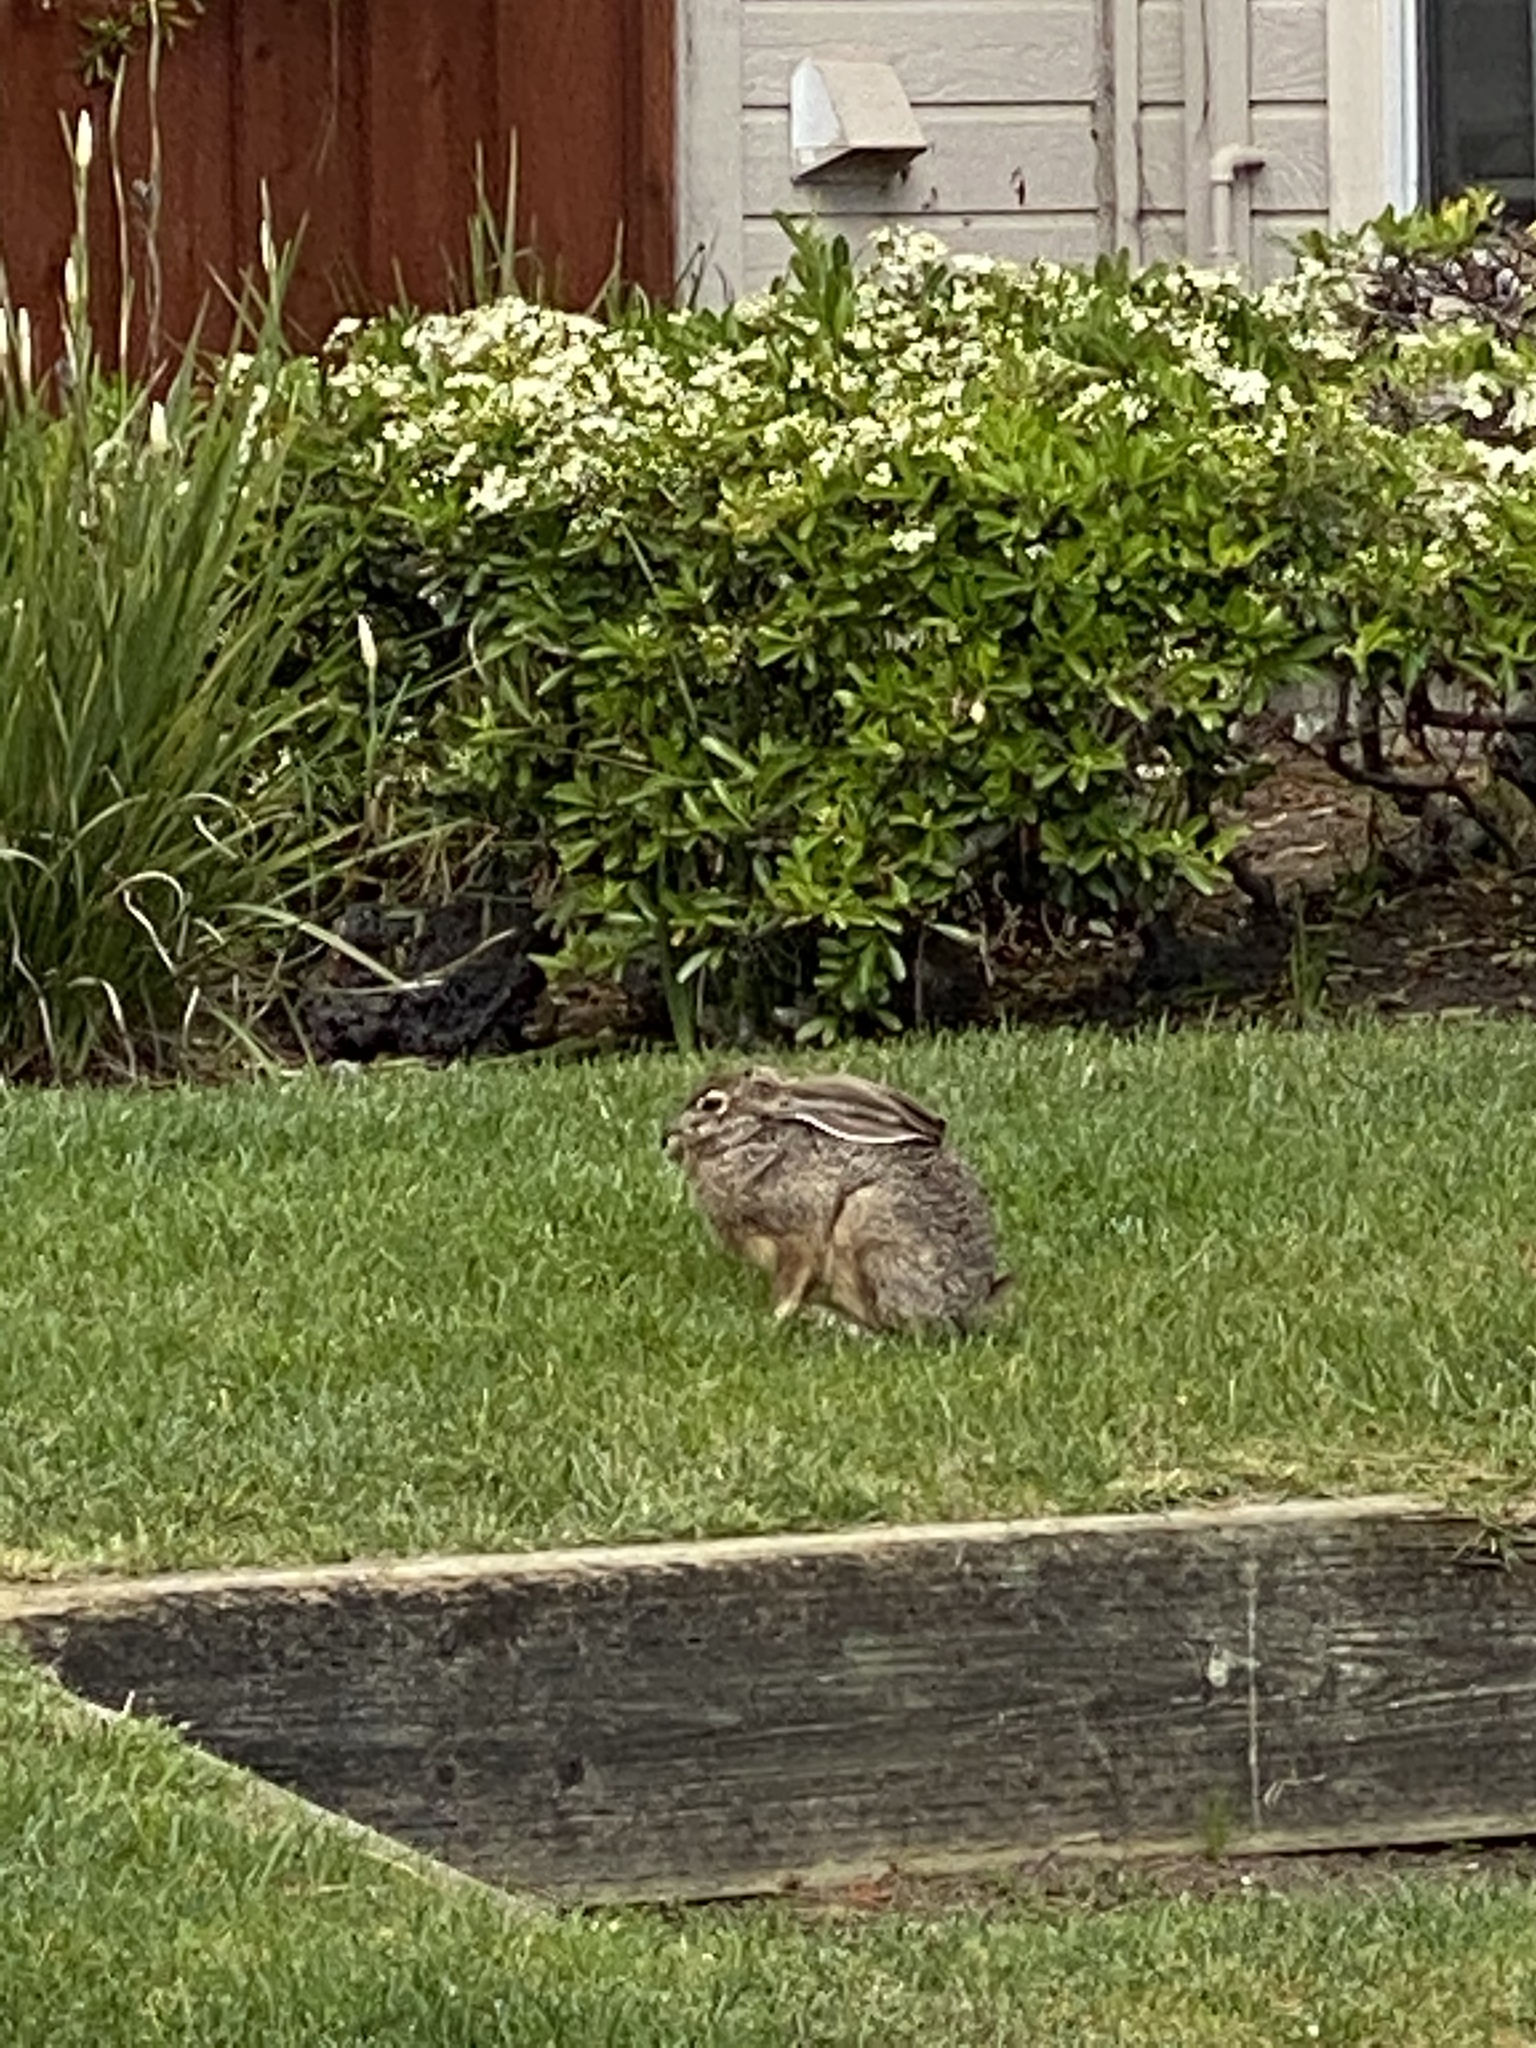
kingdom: Animalia
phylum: Chordata
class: Mammalia
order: Lagomorpha
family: Leporidae
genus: Lepus
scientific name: Lepus californicus
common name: Black-tailed jackrabbit
